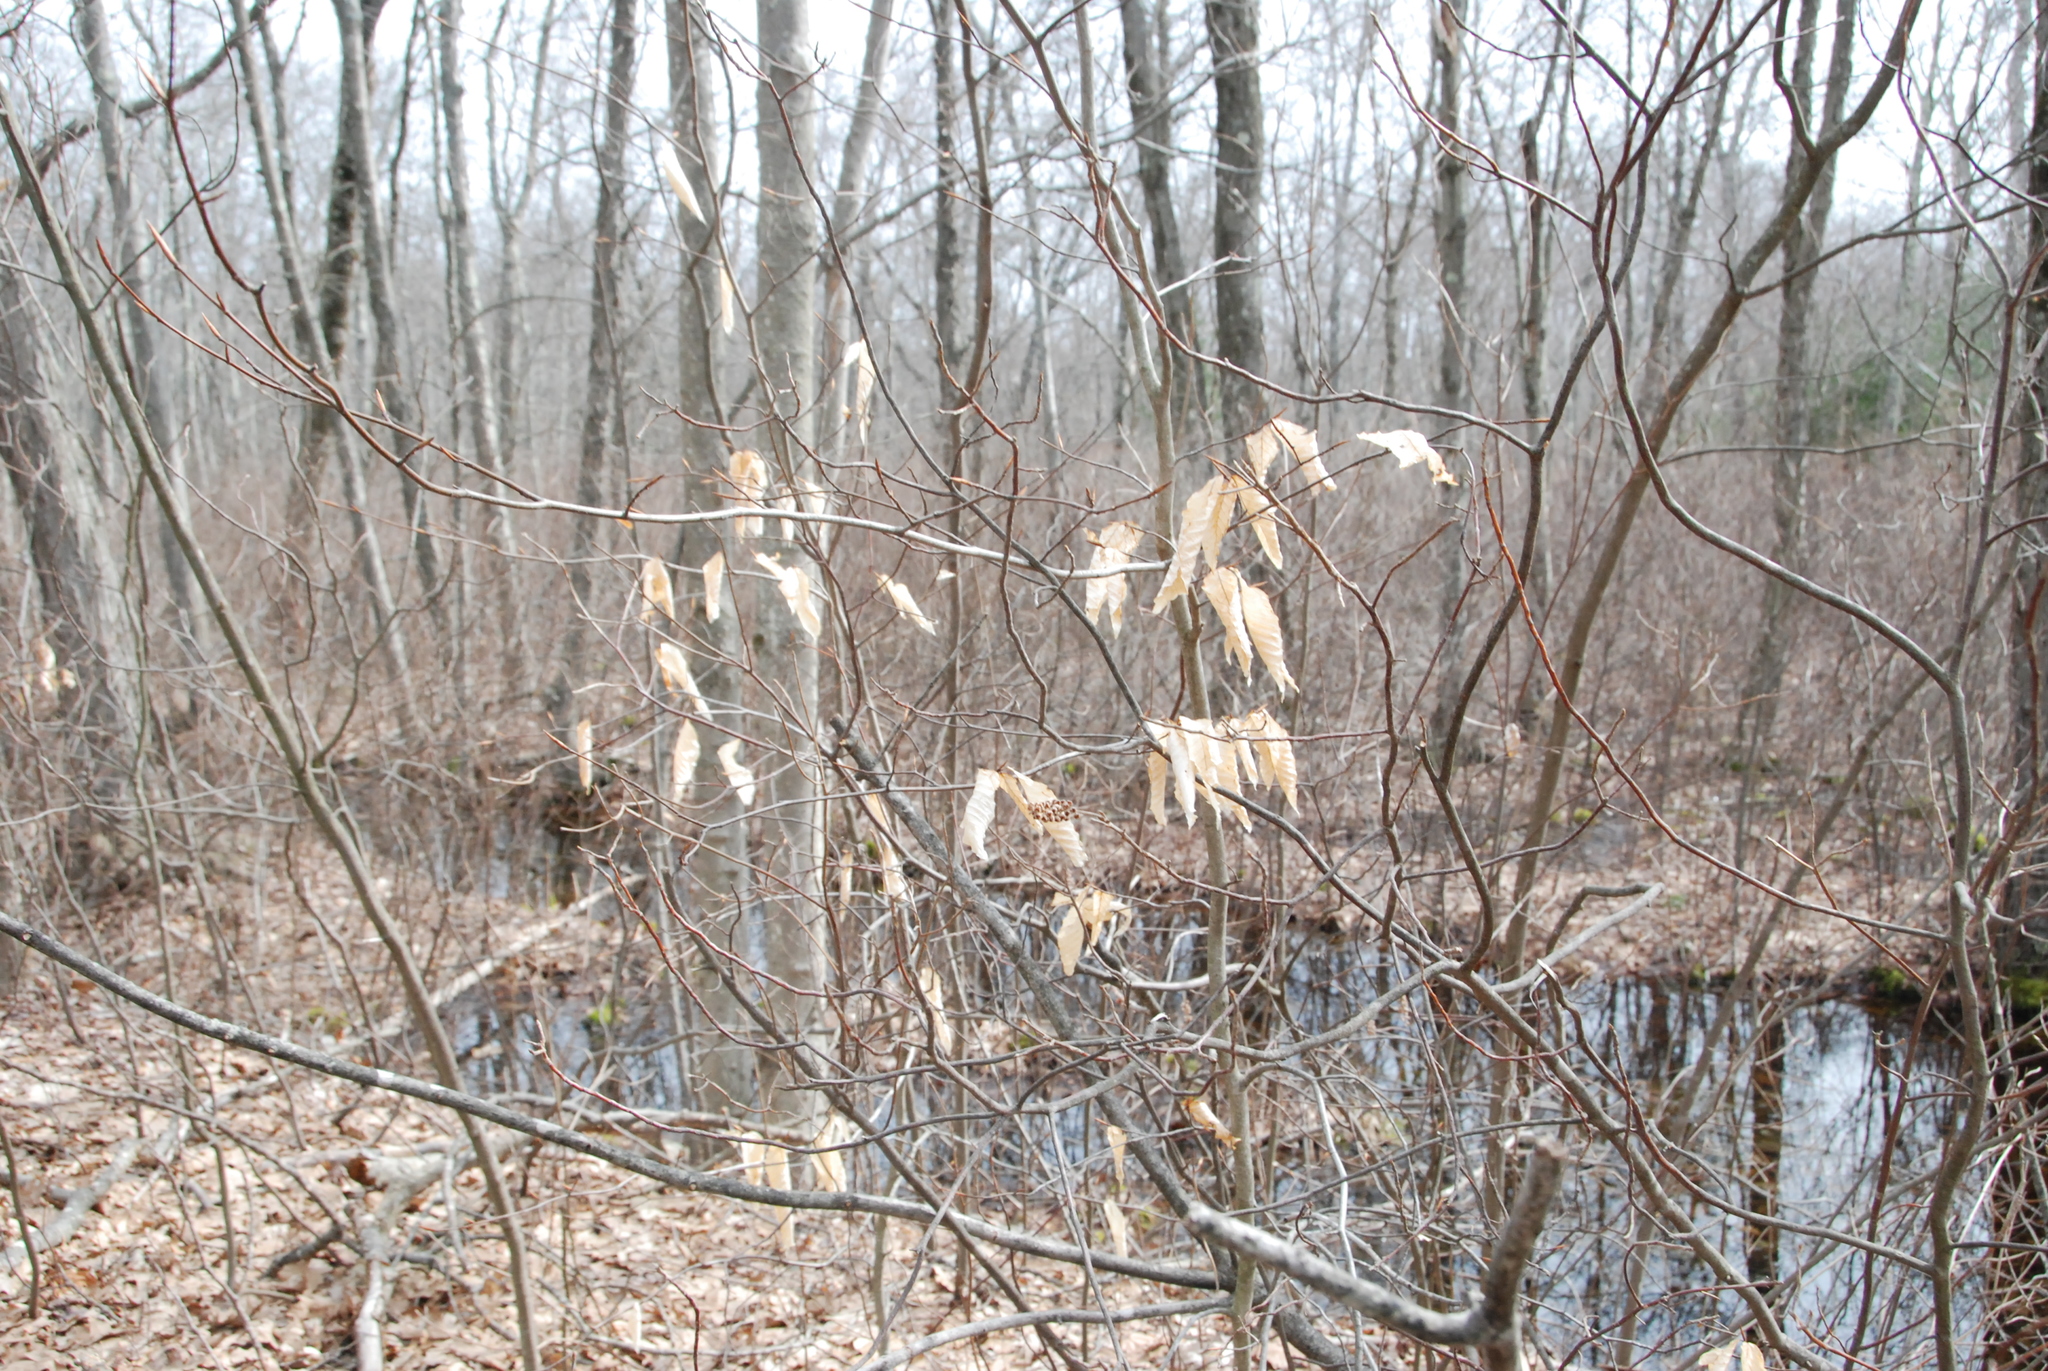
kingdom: Plantae
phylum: Tracheophyta
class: Magnoliopsida
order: Fagales
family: Fagaceae
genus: Fagus
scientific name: Fagus grandifolia
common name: American beech
